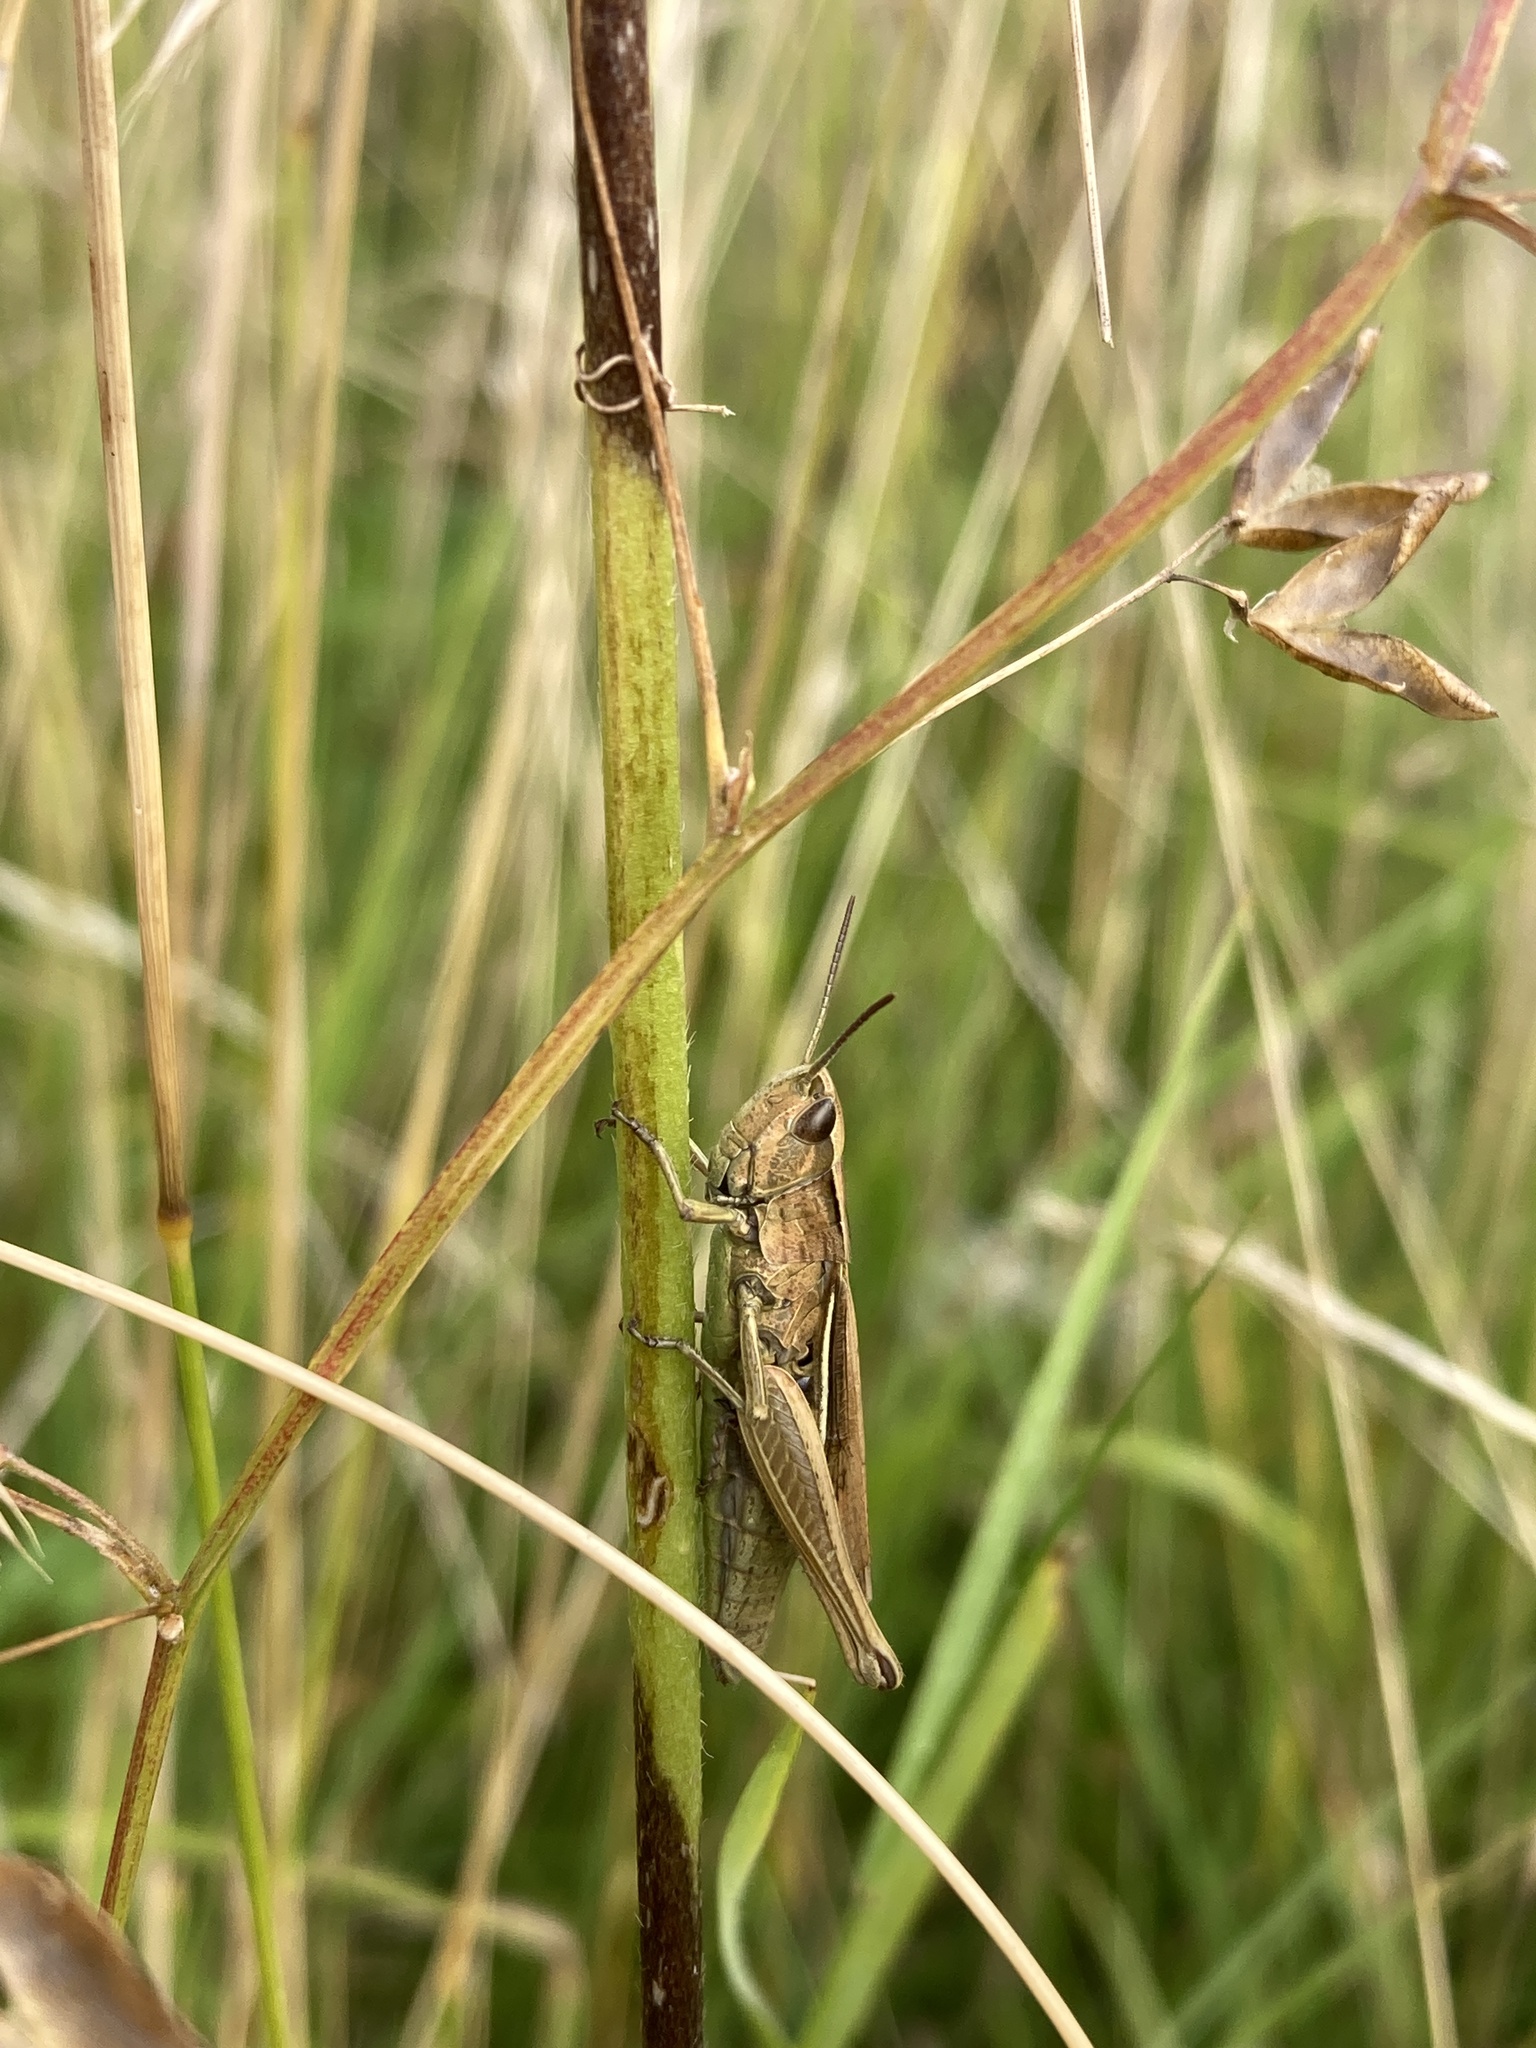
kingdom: Animalia
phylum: Arthropoda
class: Insecta
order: Orthoptera
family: Acrididae
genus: Chorthippus
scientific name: Chorthippus albomarginatus
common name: Lesser marsh grasshopper
